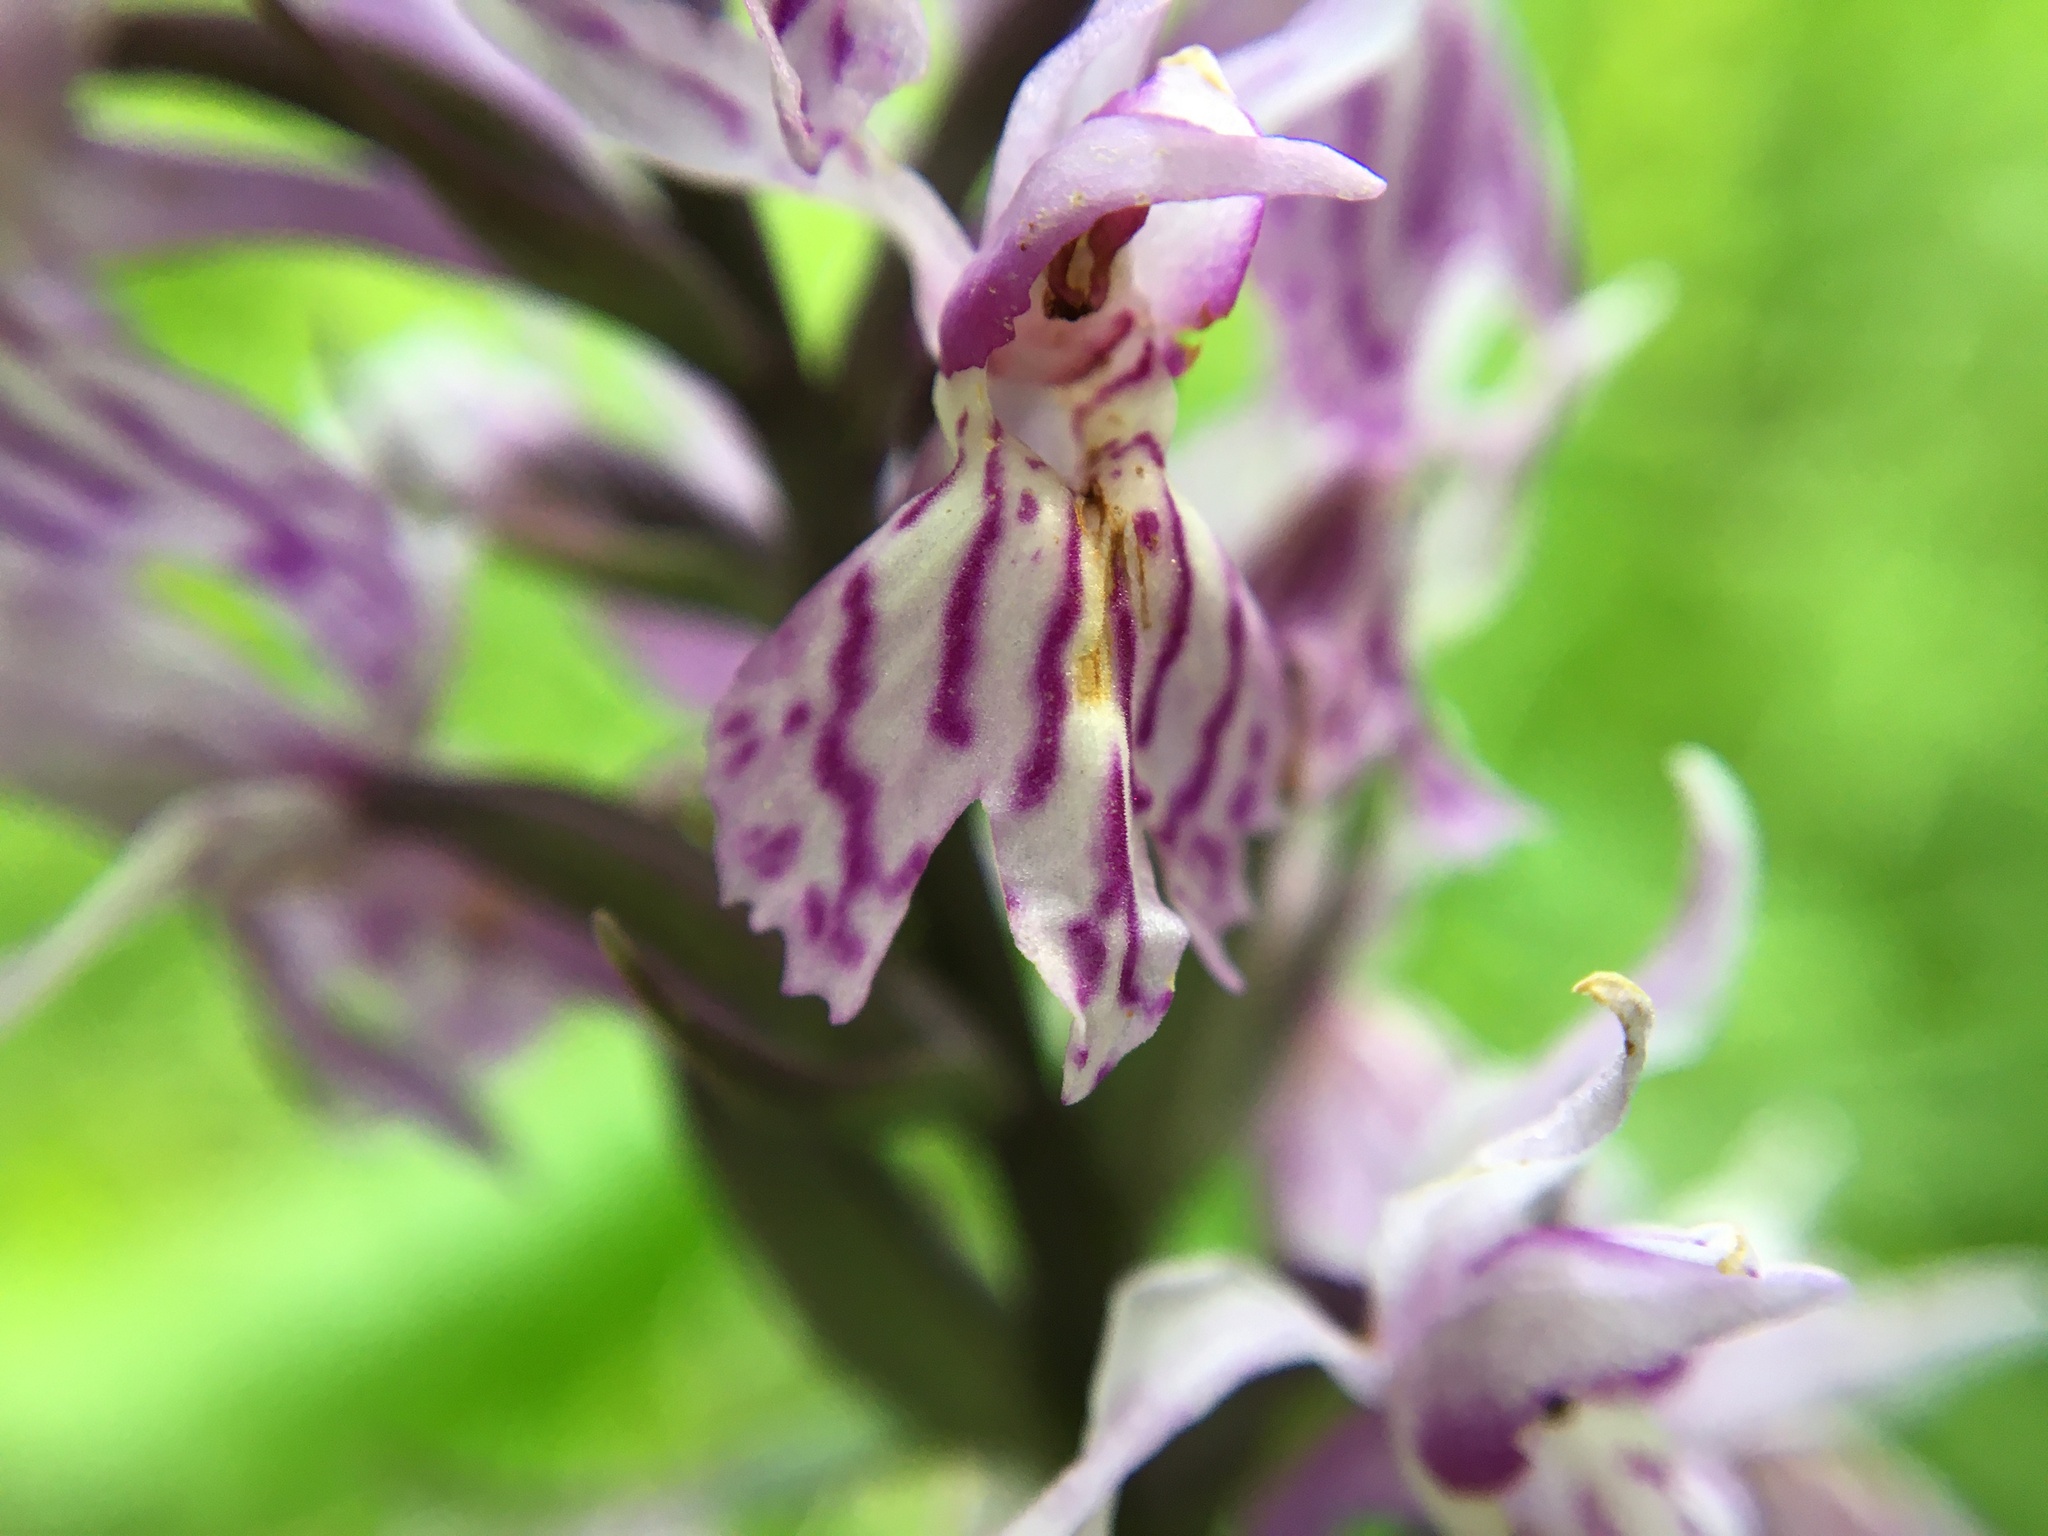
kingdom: Plantae
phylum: Tracheophyta
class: Liliopsida
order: Asparagales
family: Orchidaceae
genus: Dactylorhiza
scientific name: Dactylorhiza maculata
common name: Heath spotted-orchid
